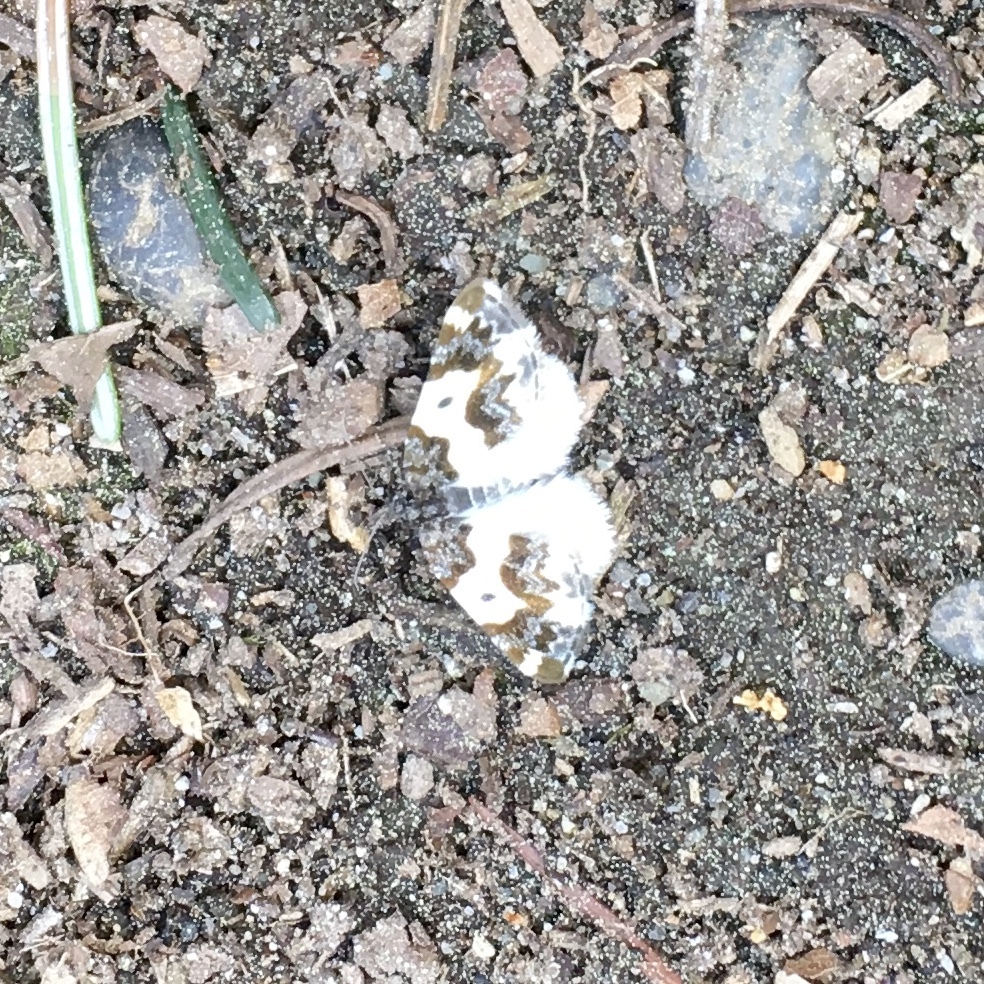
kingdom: Animalia
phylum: Arthropoda
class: Insecta
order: Lepidoptera
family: Geometridae
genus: Mesoleuca
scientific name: Mesoleuca gratulata
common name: Half-white carpet moth
